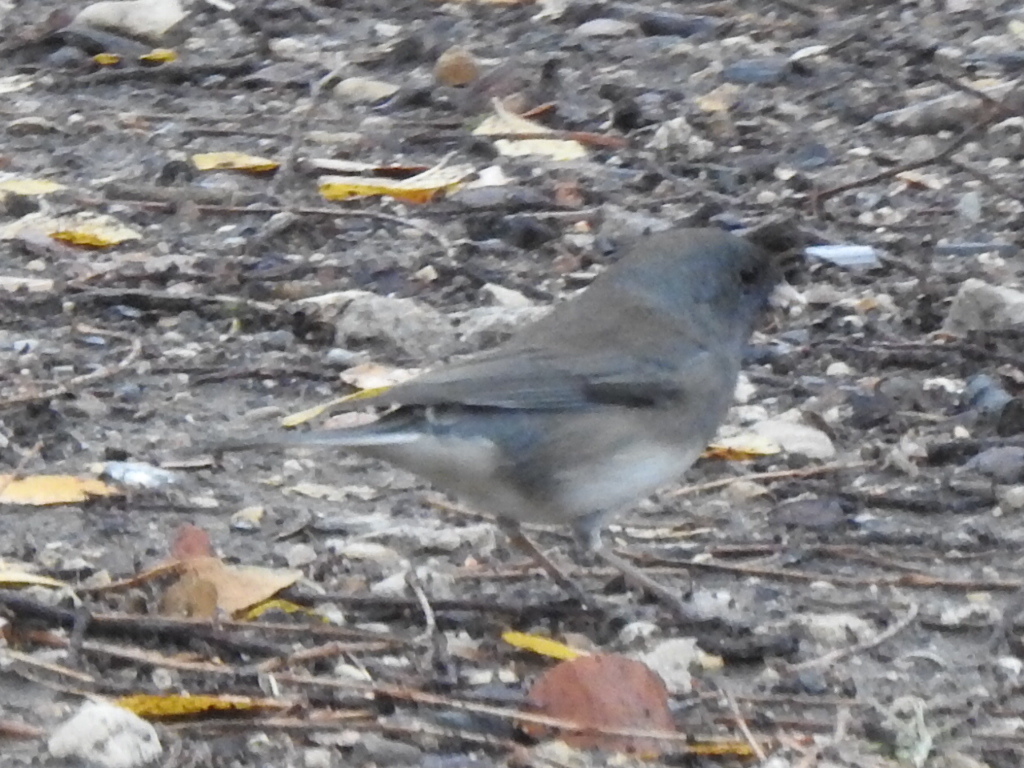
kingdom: Animalia
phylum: Chordata
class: Aves
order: Passeriformes
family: Passerellidae
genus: Junco
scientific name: Junco hyemalis
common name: Dark-eyed junco
